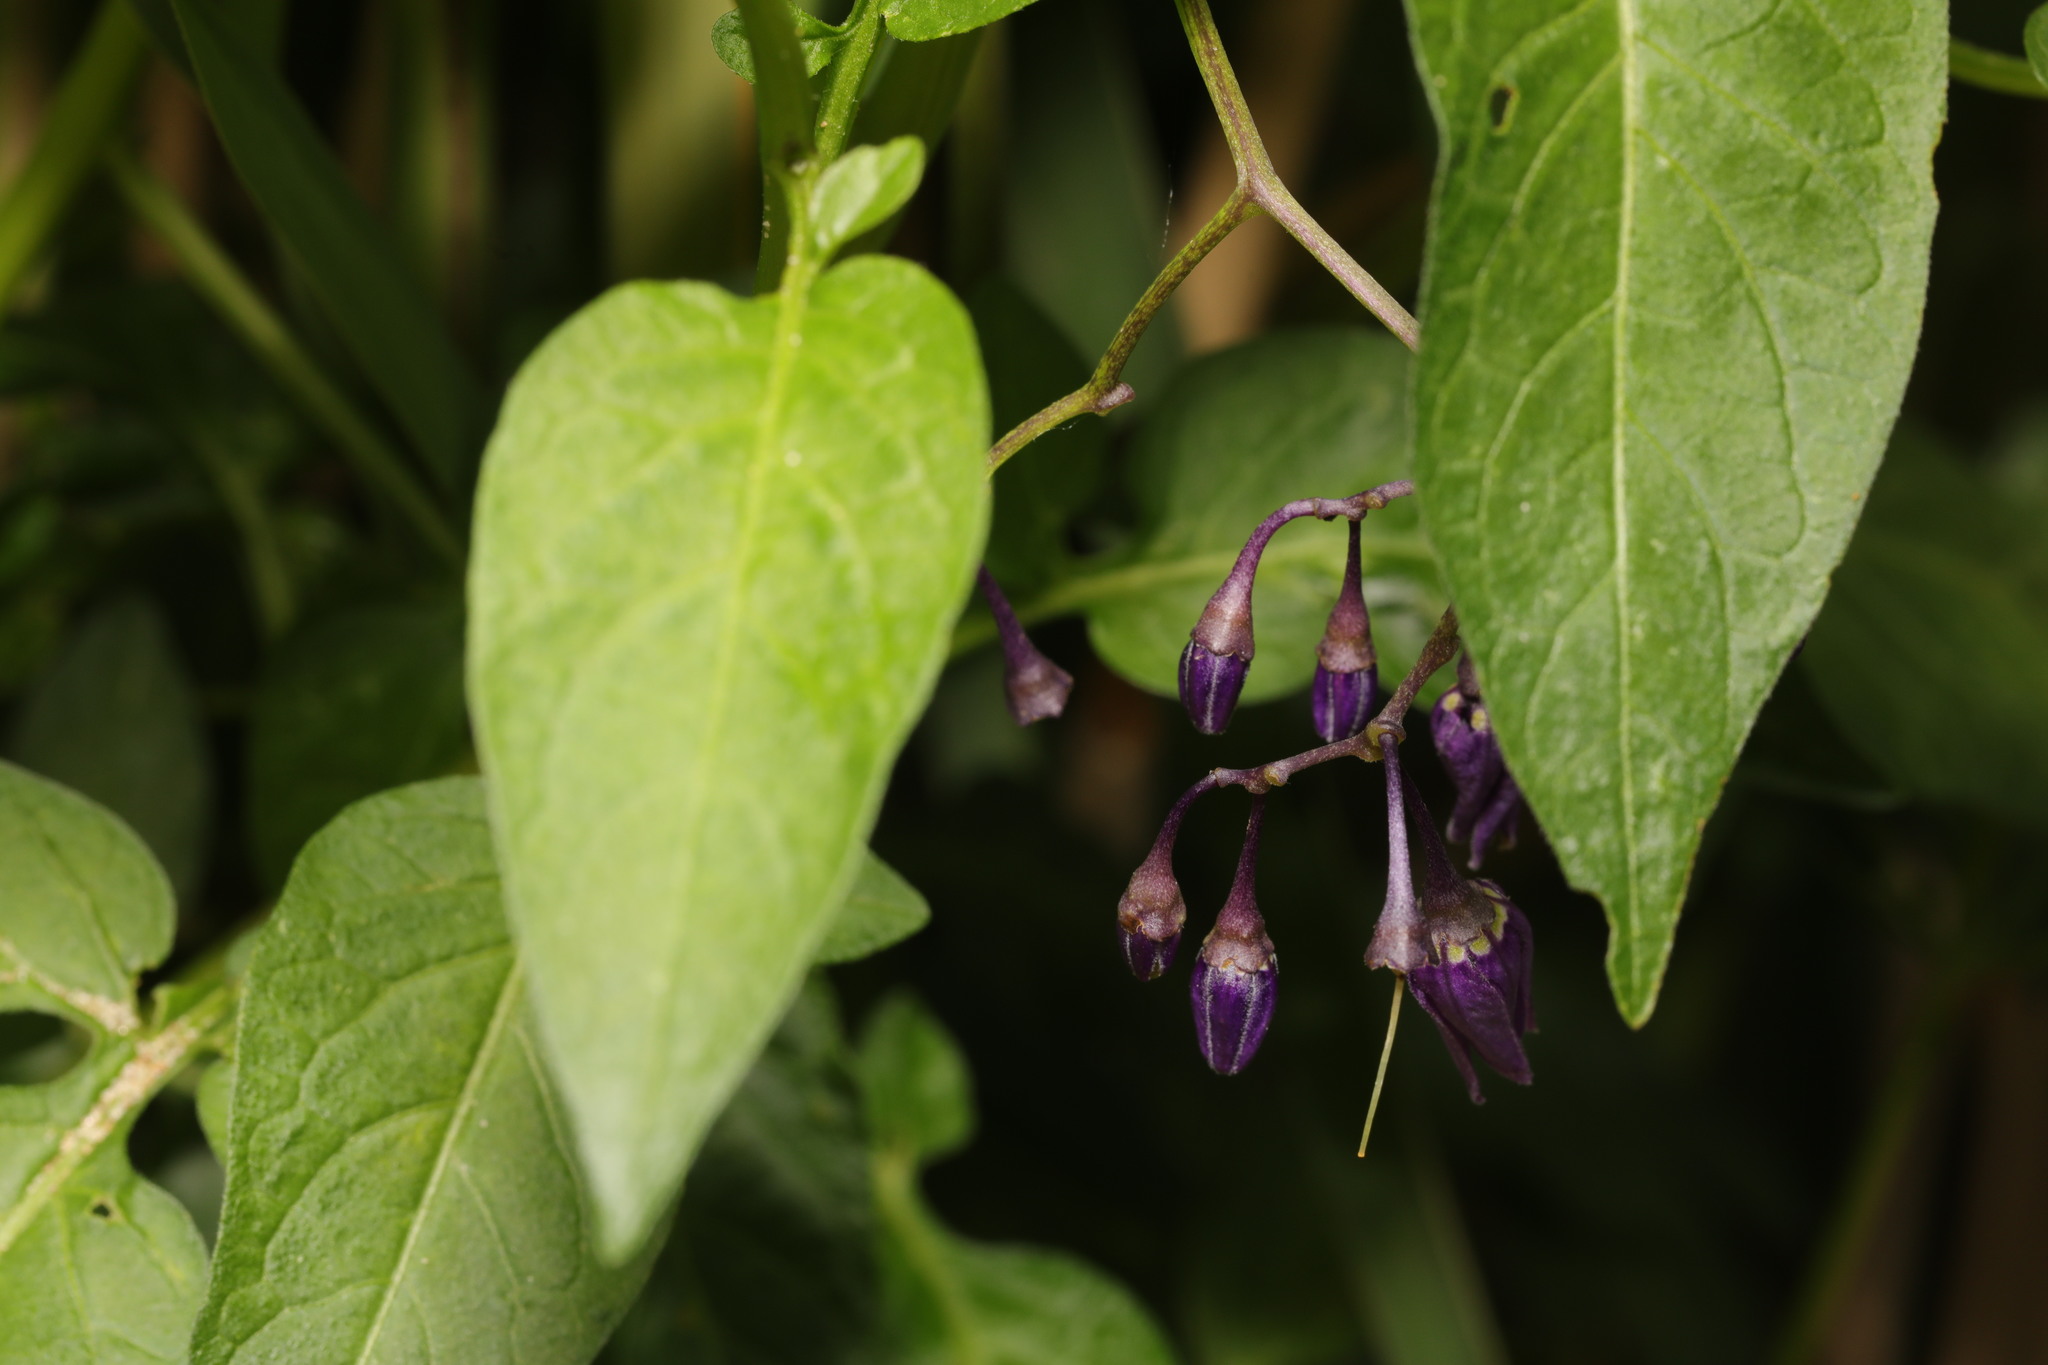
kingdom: Plantae
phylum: Tracheophyta
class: Magnoliopsida
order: Solanales
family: Solanaceae
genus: Solanum
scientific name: Solanum dulcamara
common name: Climbing nightshade
